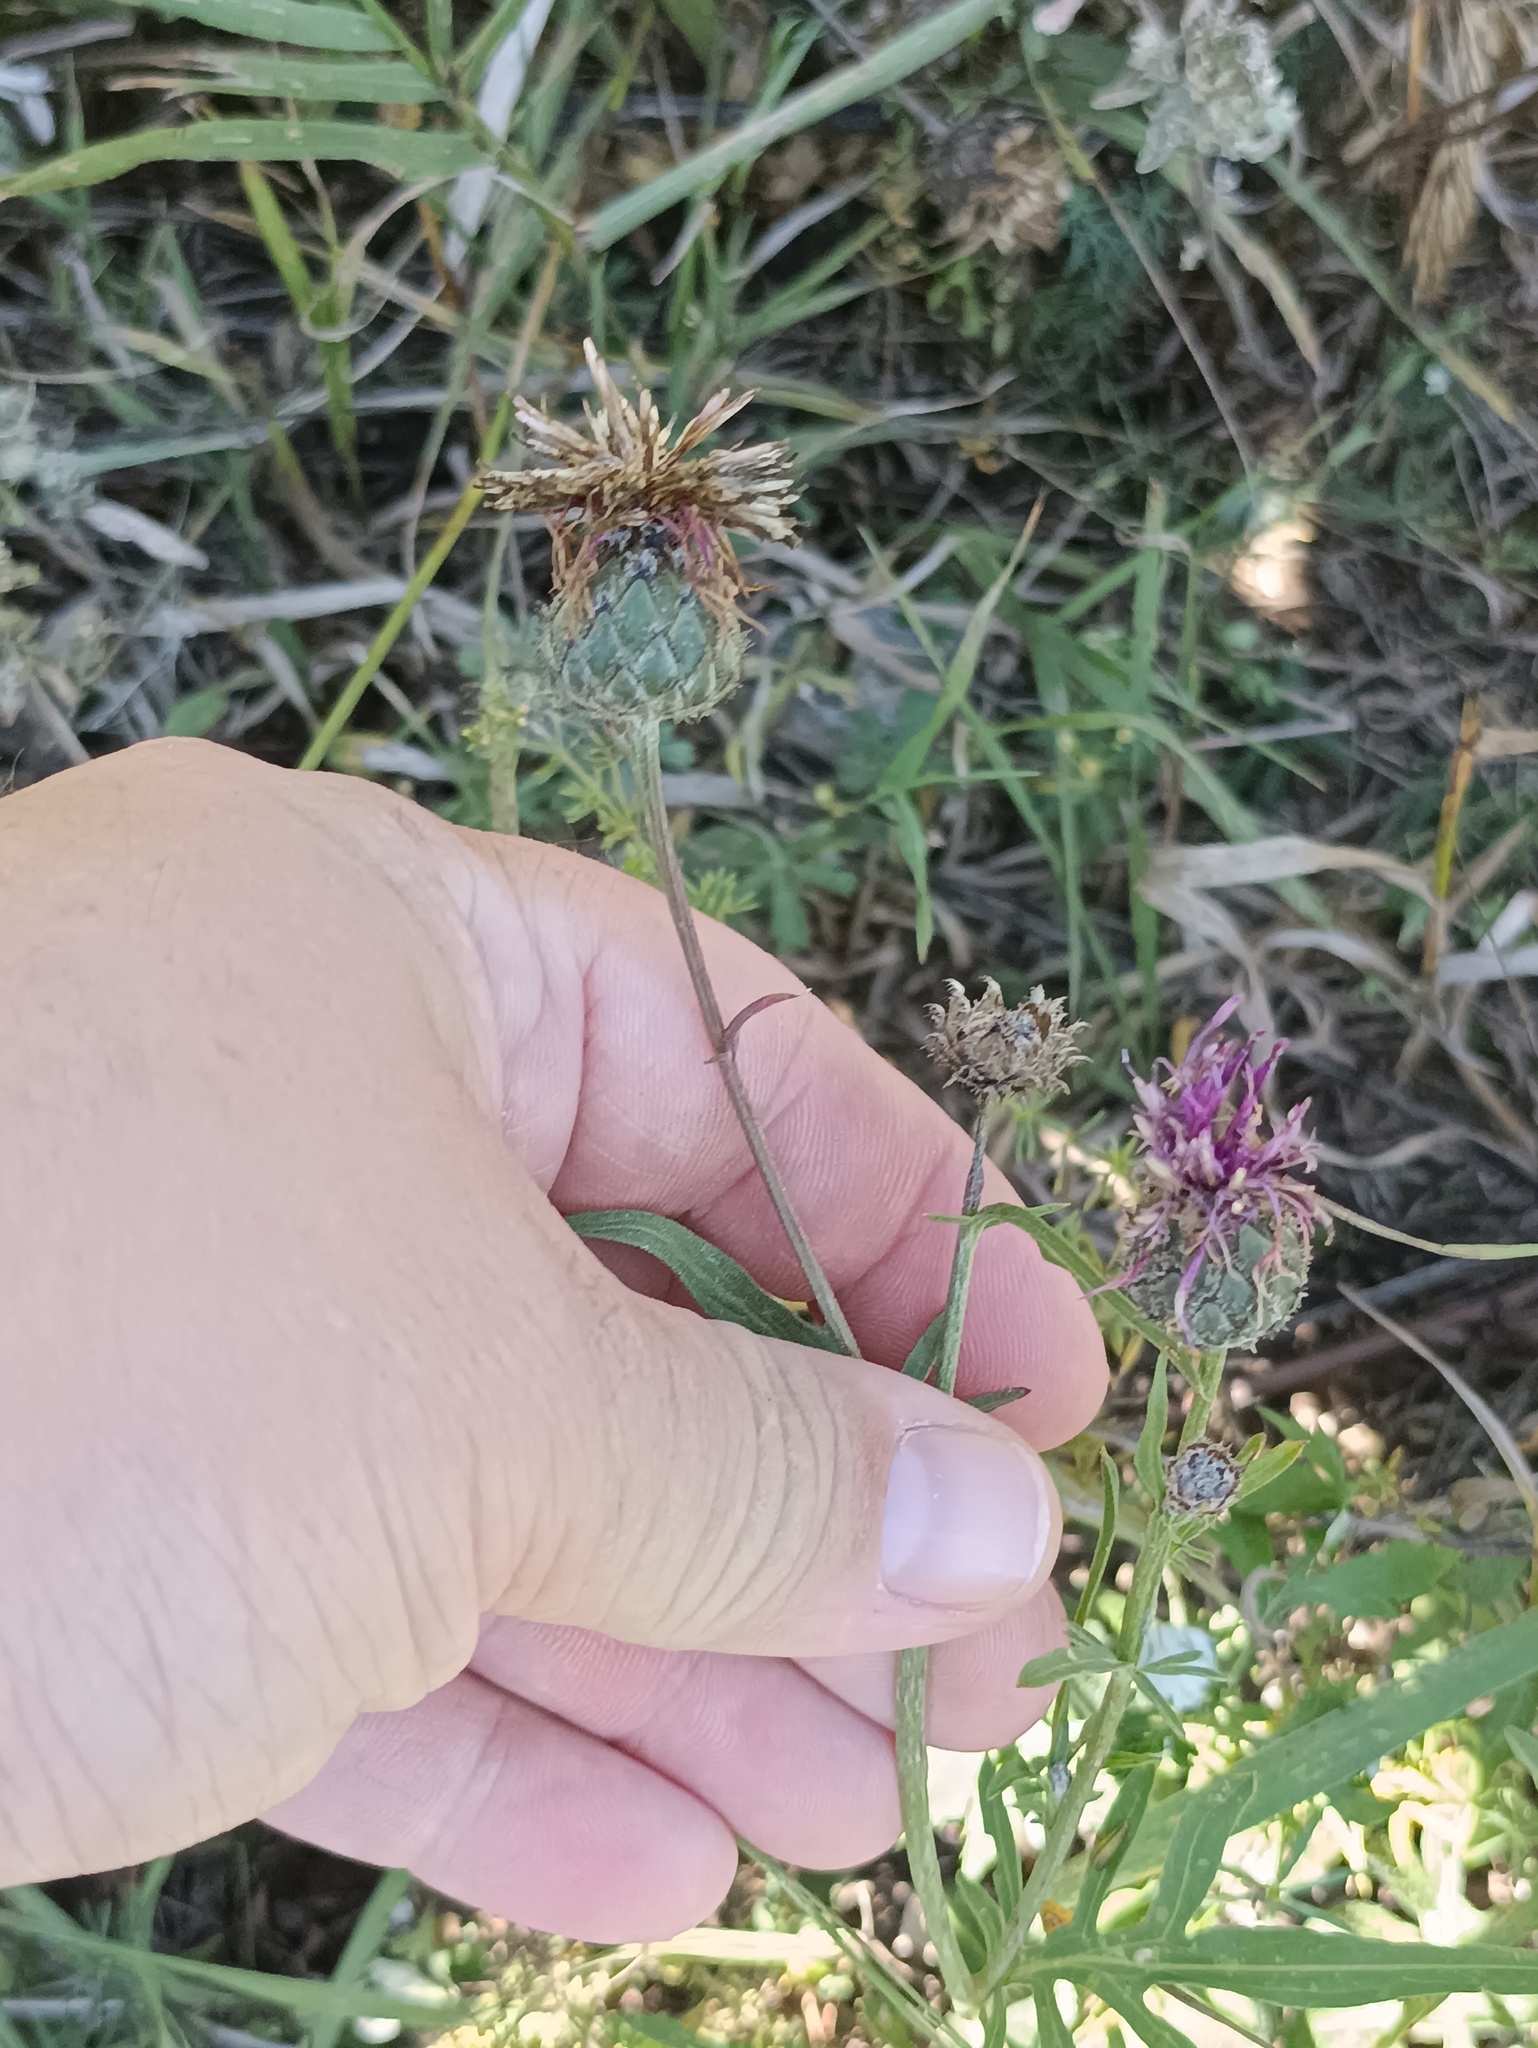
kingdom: Plantae
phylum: Tracheophyta
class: Magnoliopsida
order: Asterales
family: Asteraceae
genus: Centaurea
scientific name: Centaurea scabiosa
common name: Greater knapweed
